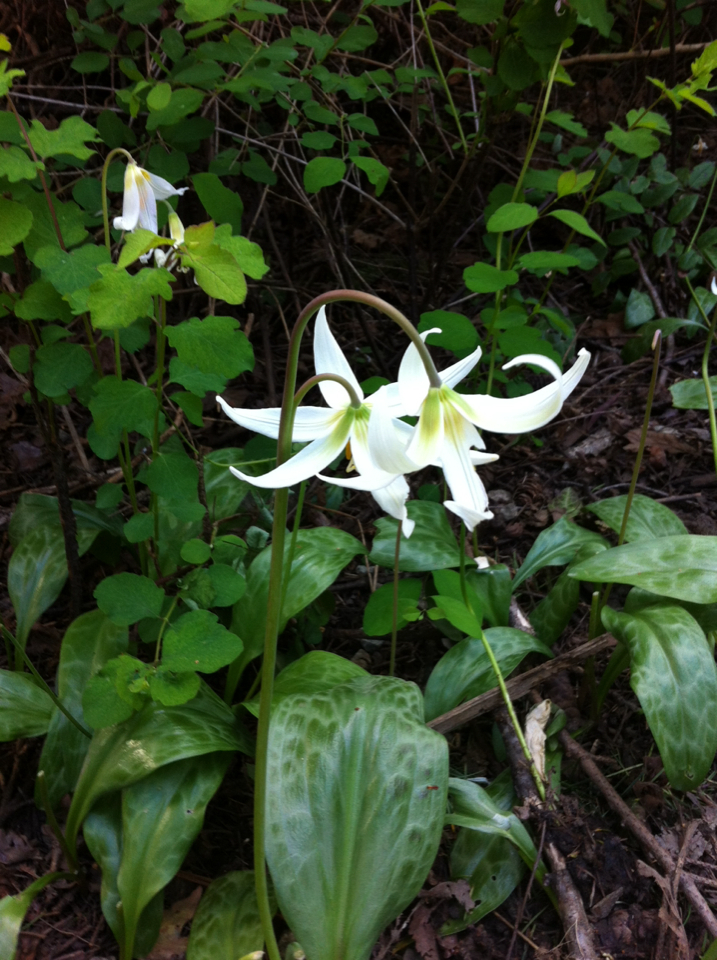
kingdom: Plantae
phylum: Tracheophyta
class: Liliopsida
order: Liliales
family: Liliaceae
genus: Erythronium
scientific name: Erythronium oregonum
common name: Giant adder's-tongue
